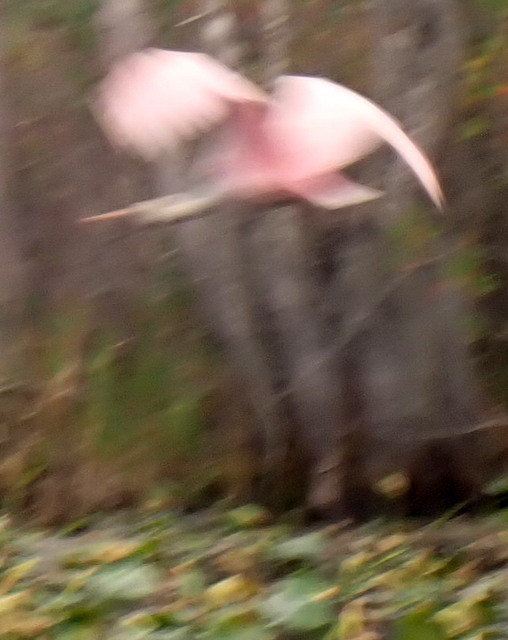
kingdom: Animalia
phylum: Chordata
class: Aves
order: Pelecaniformes
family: Threskiornithidae
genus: Platalea
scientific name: Platalea ajaja
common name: Roseate spoonbill
